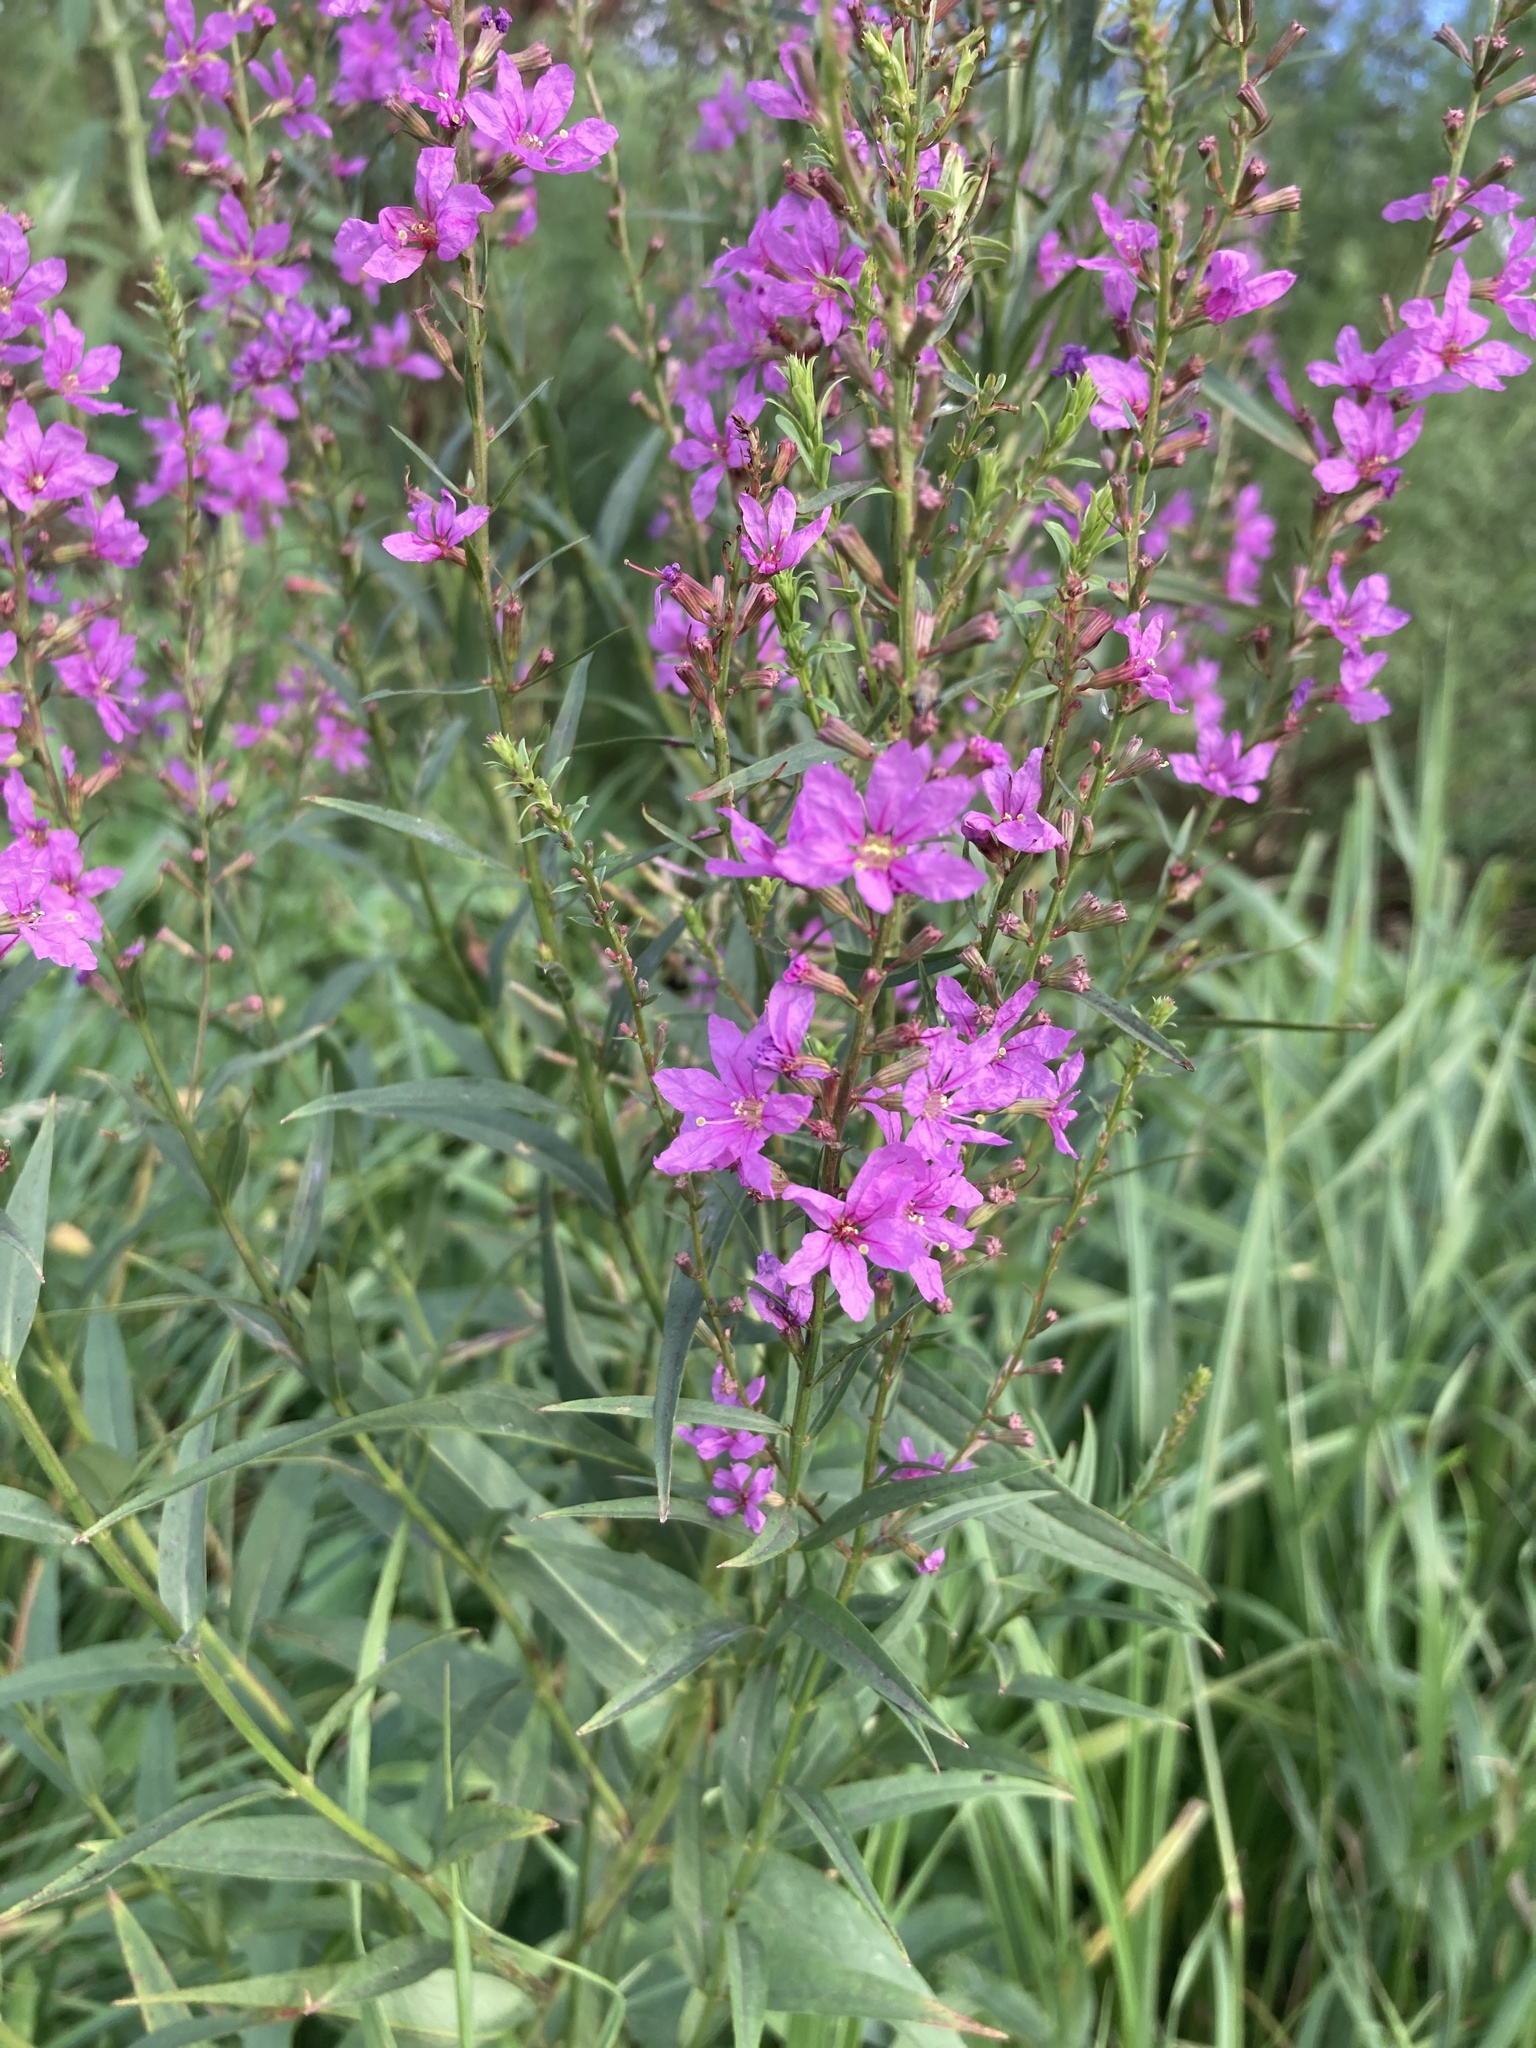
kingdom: Plantae
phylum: Tracheophyta
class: Magnoliopsida
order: Myrtales
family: Lythraceae
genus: Lythrum
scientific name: Lythrum virgatum
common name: European wand loosestrife
